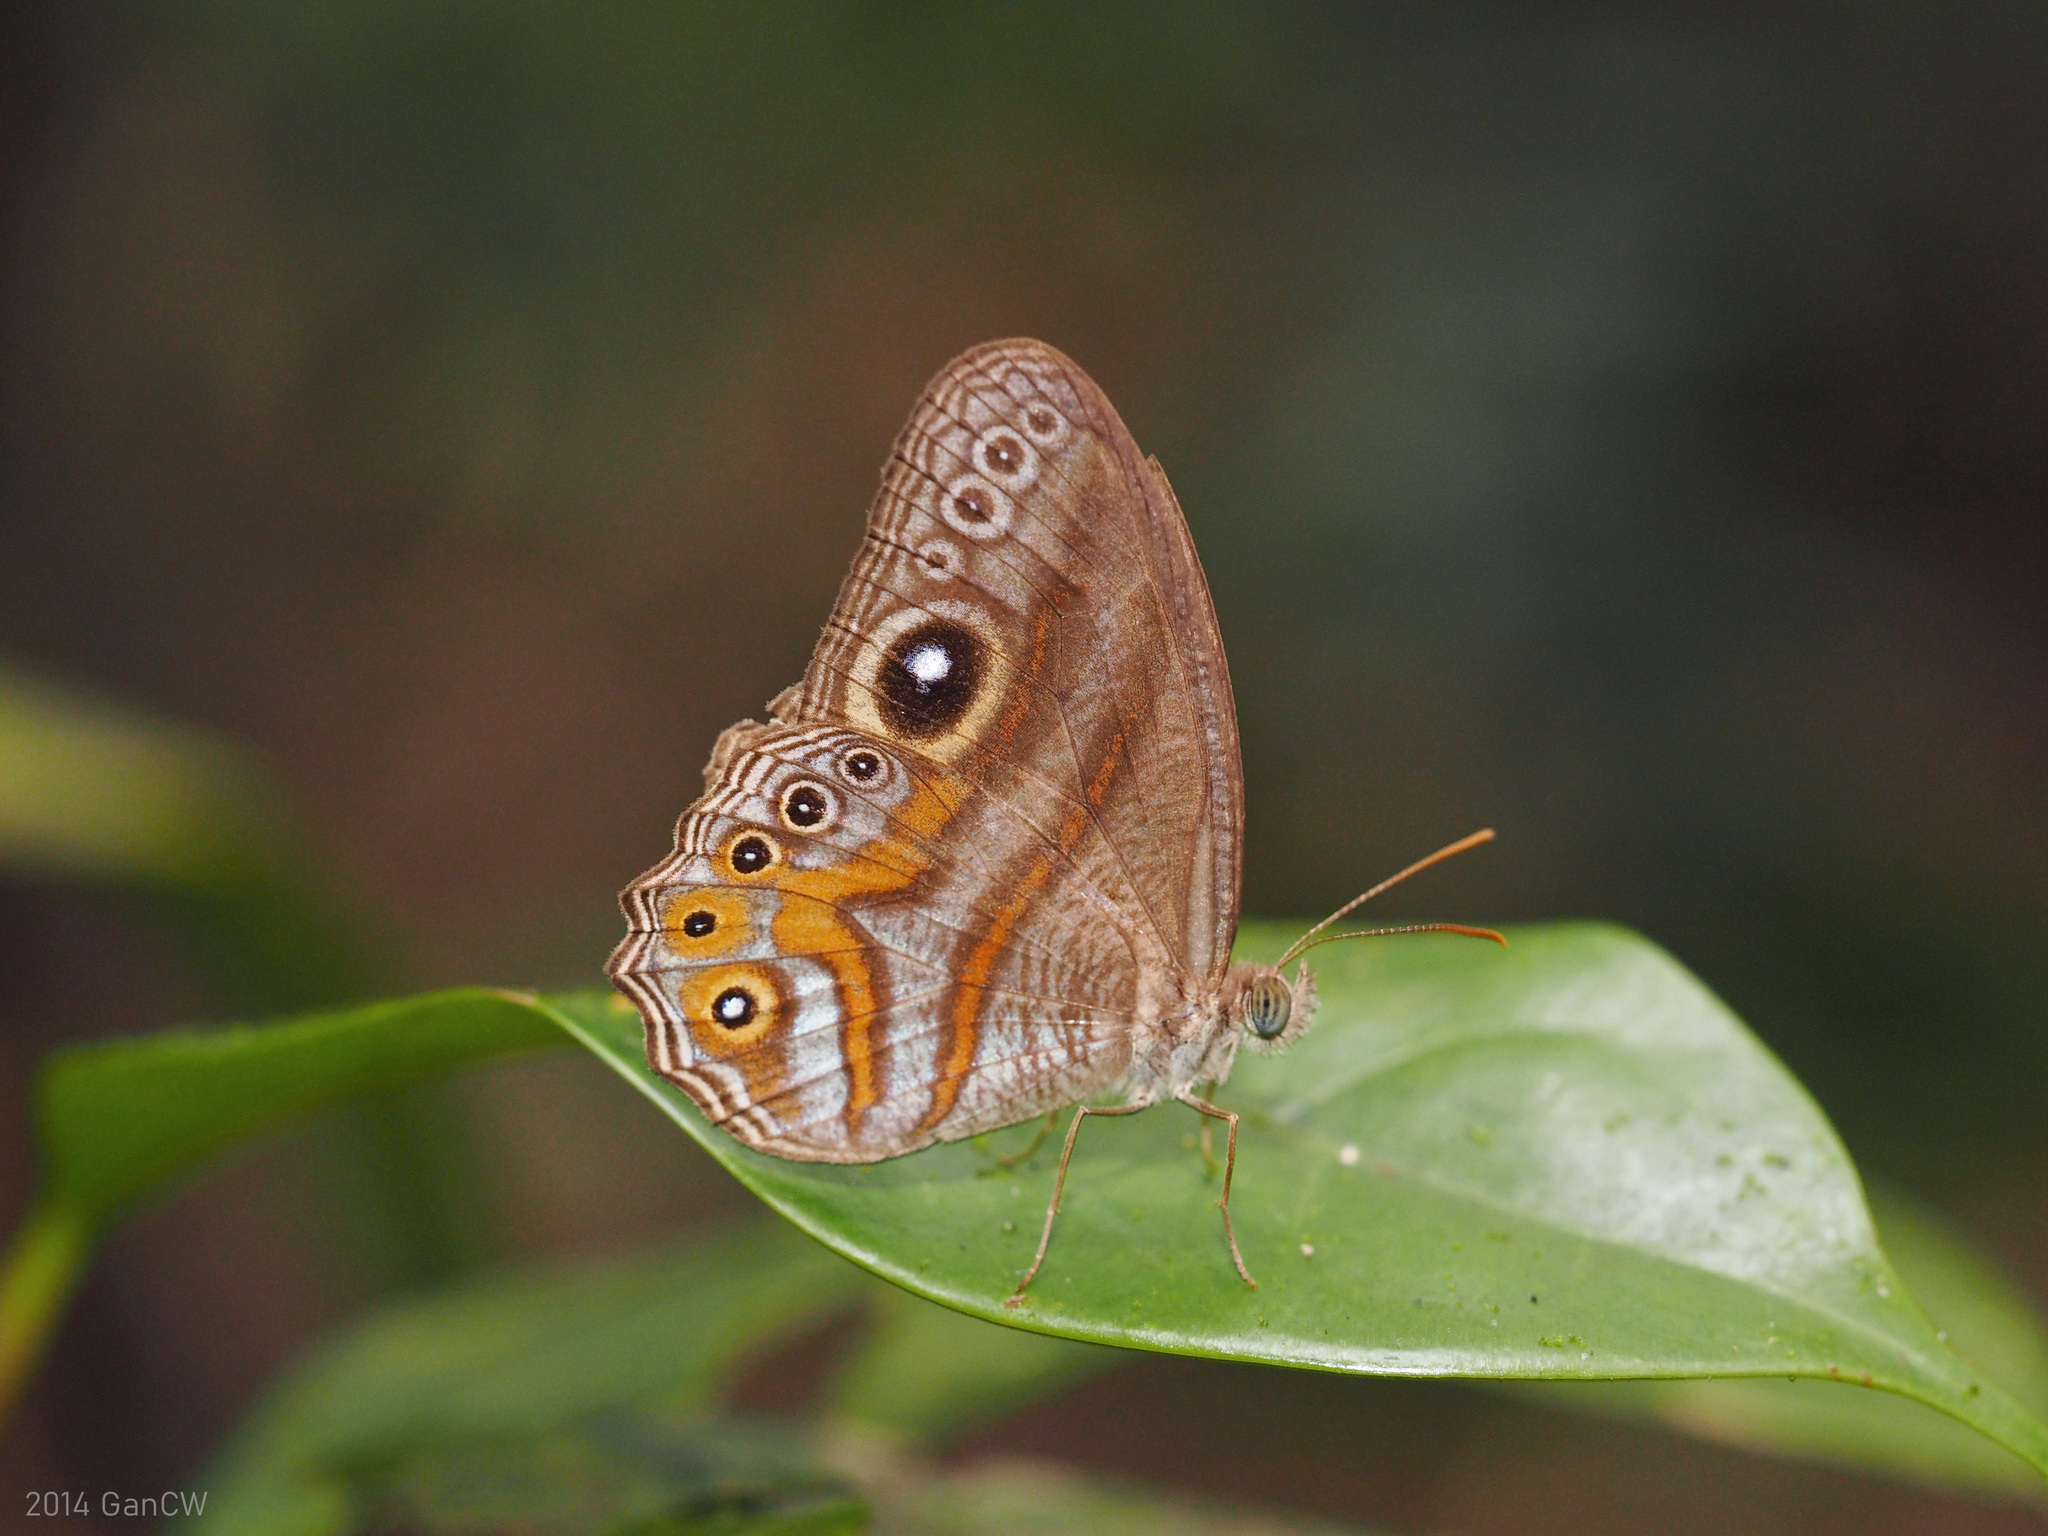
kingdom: Animalia
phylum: Arthropoda
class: Insecta
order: Lepidoptera
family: Nymphalidae
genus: Erites
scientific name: Erites argentina
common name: Eyed cyclops
